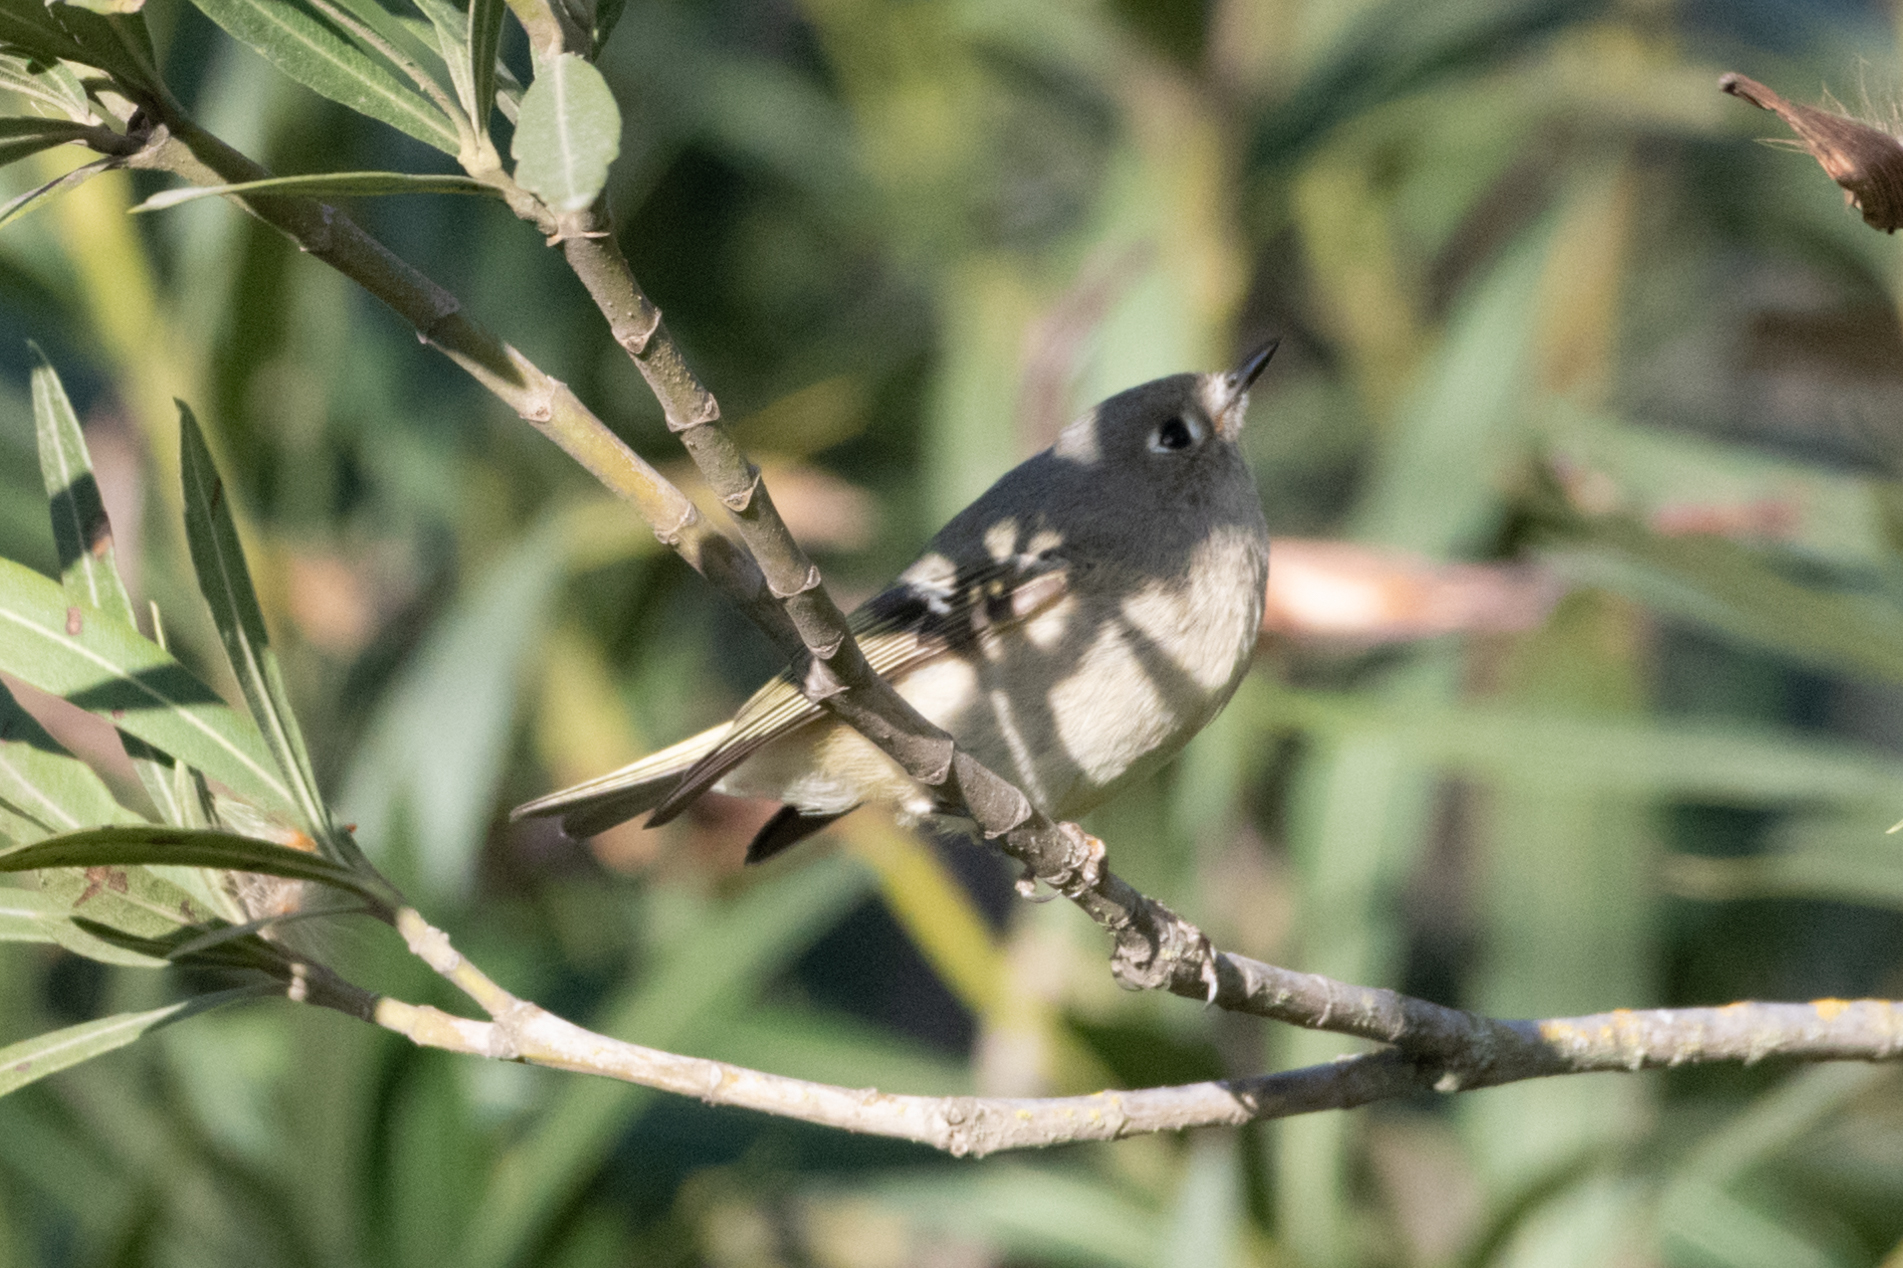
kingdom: Animalia
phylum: Chordata
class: Aves
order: Passeriformes
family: Regulidae
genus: Regulus
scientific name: Regulus calendula
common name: Ruby-crowned kinglet
